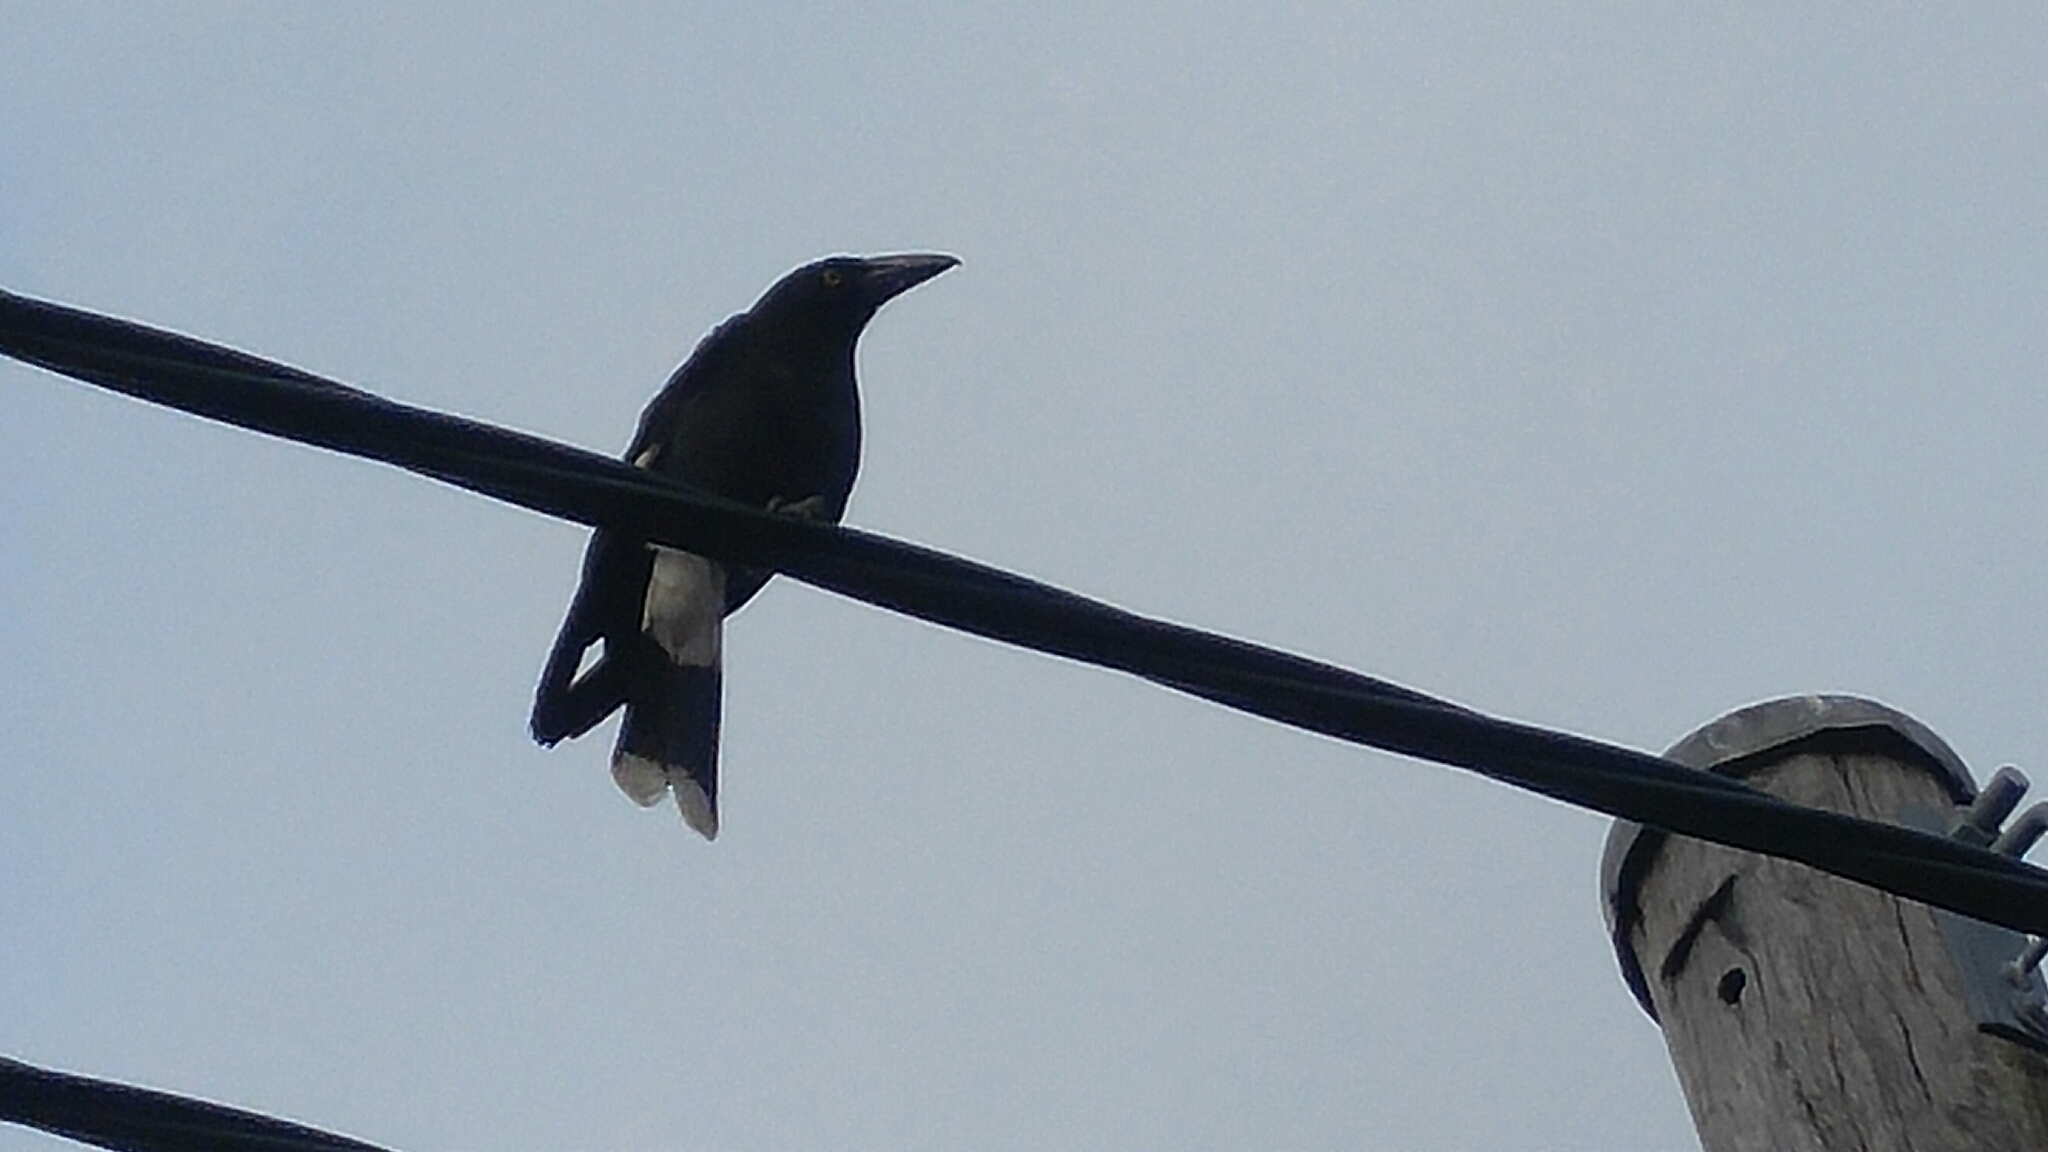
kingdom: Animalia
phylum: Chordata
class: Aves
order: Passeriformes
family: Cracticidae
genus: Strepera
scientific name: Strepera graculina
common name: Pied currawong
